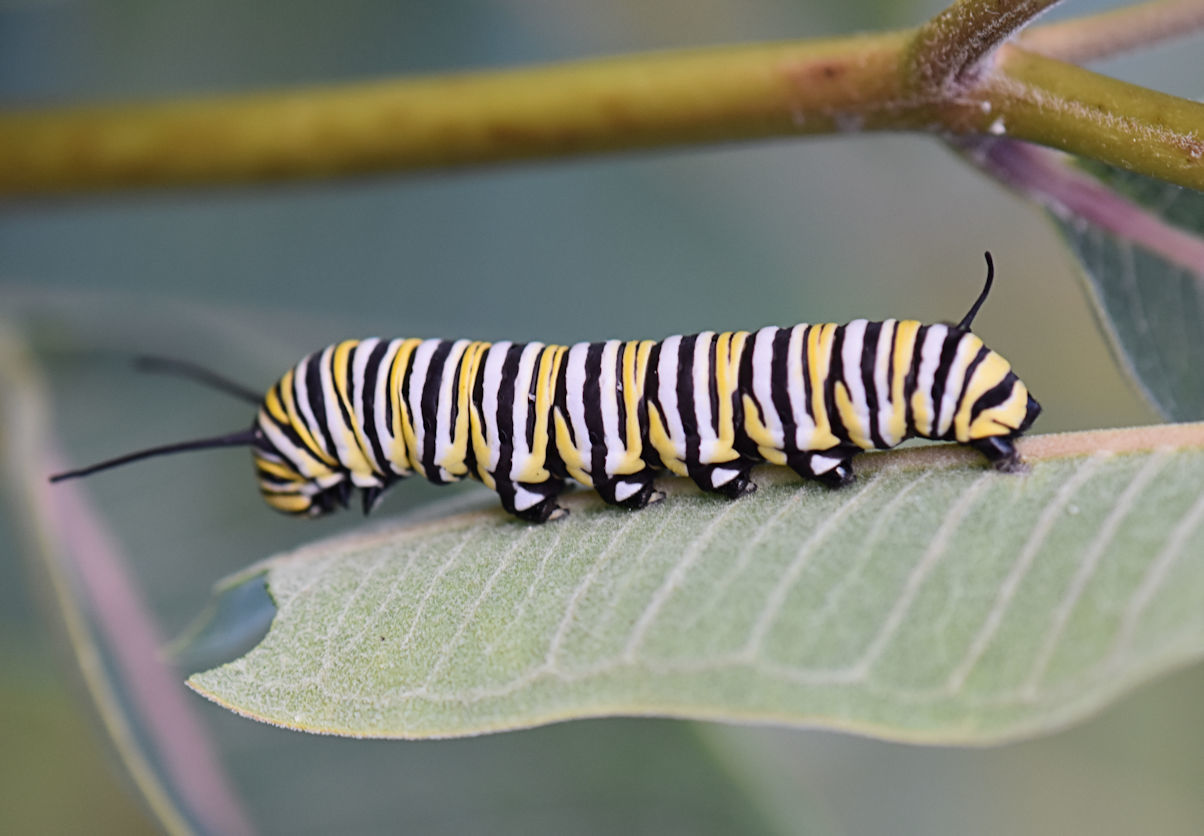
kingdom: Animalia
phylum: Arthropoda
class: Insecta
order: Lepidoptera
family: Nymphalidae
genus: Danaus
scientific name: Danaus plexippus
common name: Monarch
